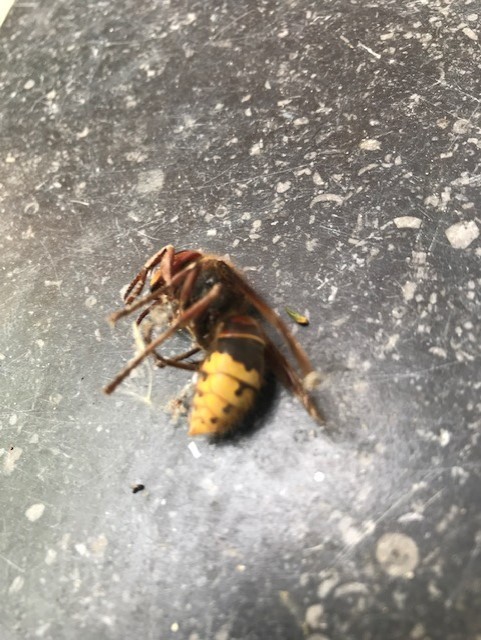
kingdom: Animalia
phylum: Arthropoda
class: Insecta
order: Hymenoptera
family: Vespidae
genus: Vespa
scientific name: Vespa crabro
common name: Hornet
